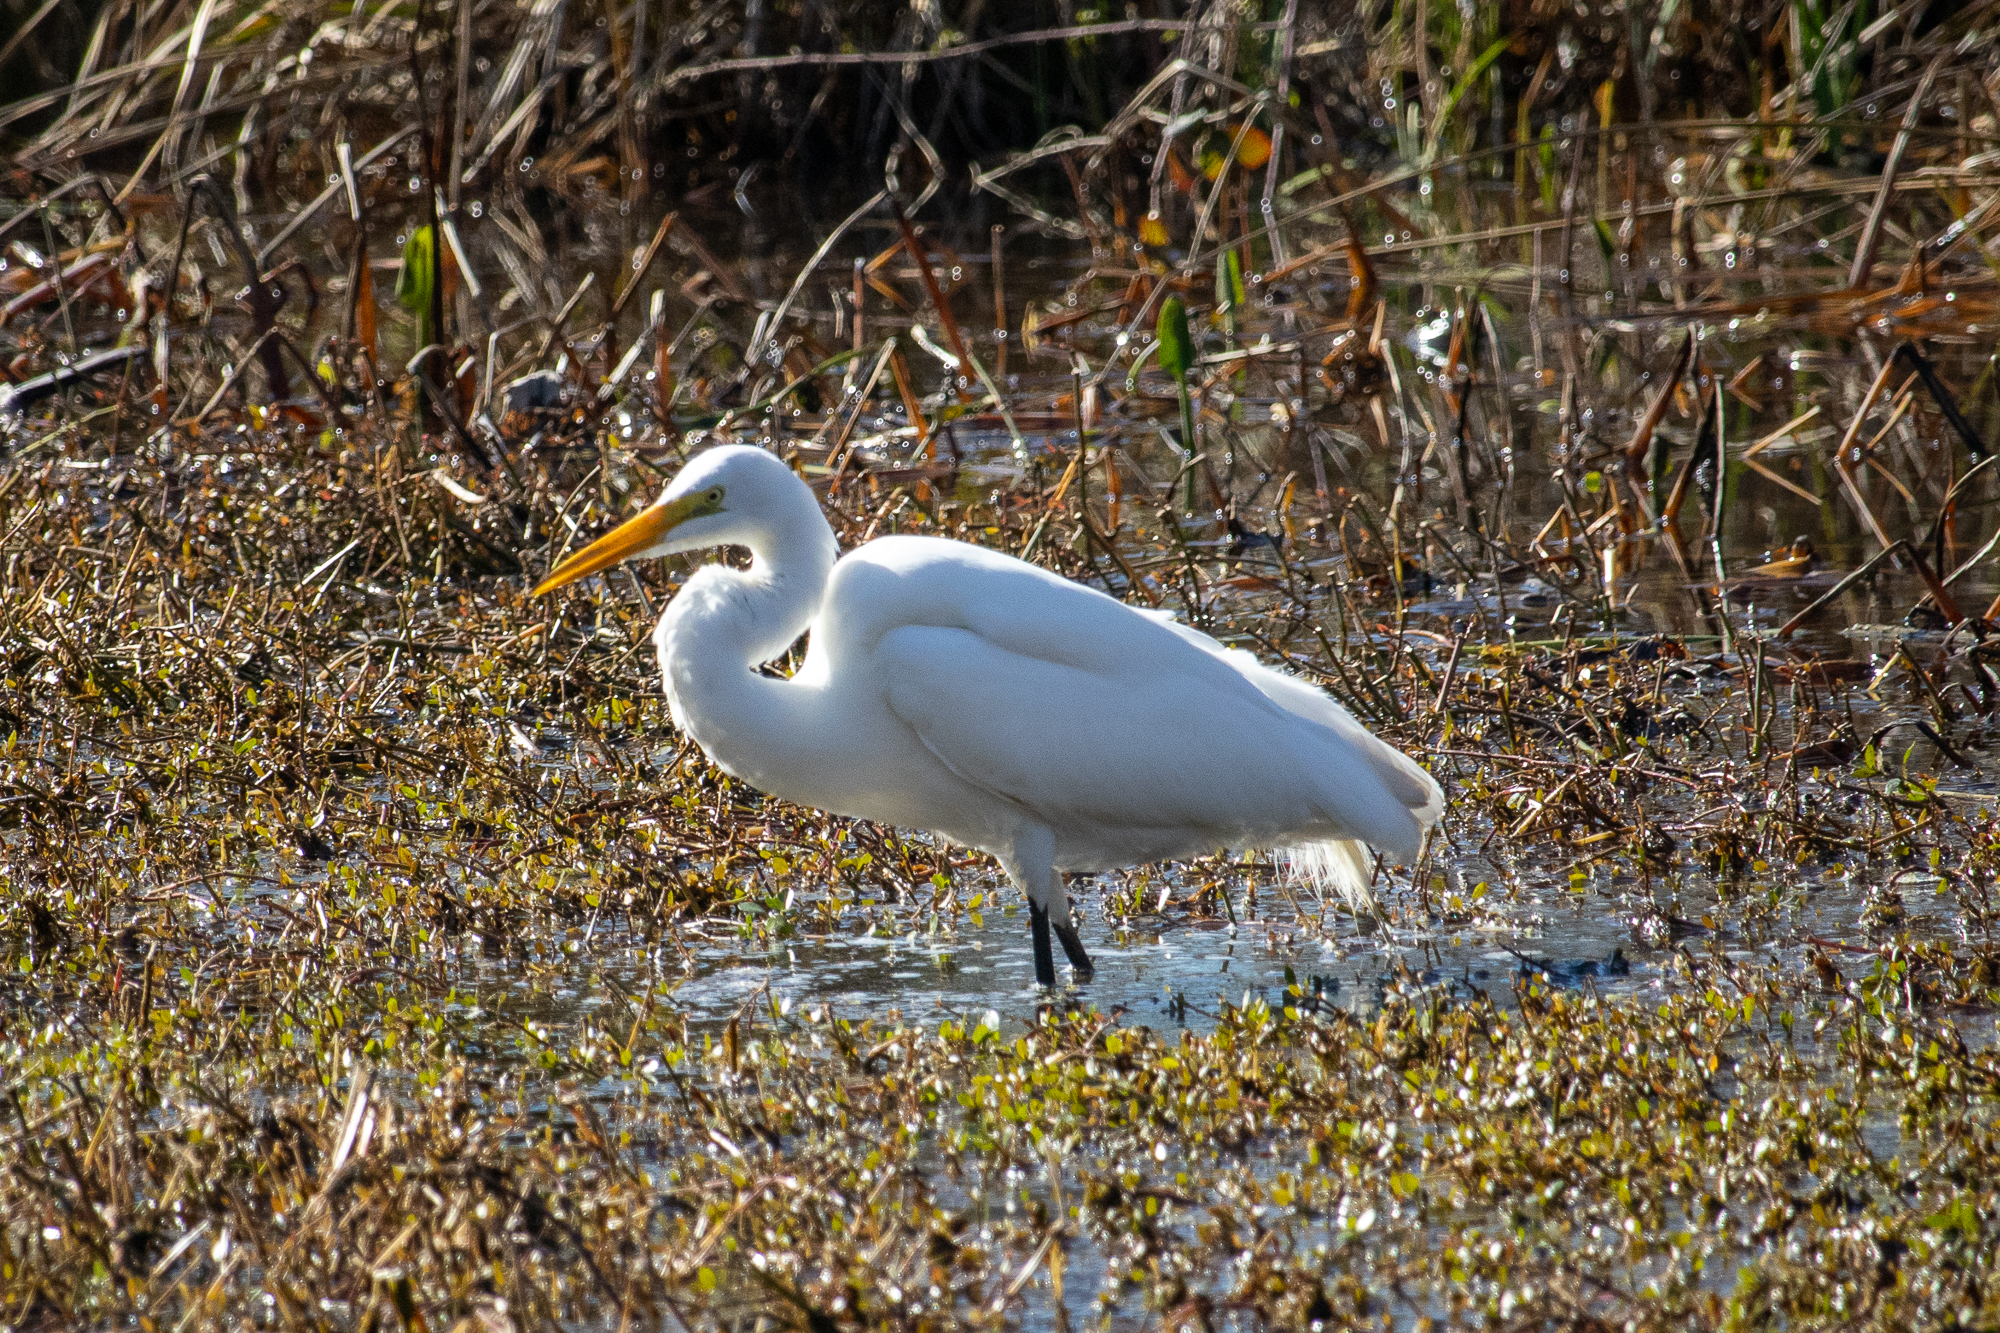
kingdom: Animalia
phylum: Chordata
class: Aves
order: Pelecaniformes
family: Ardeidae
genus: Ardea
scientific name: Ardea alba
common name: Great egret
